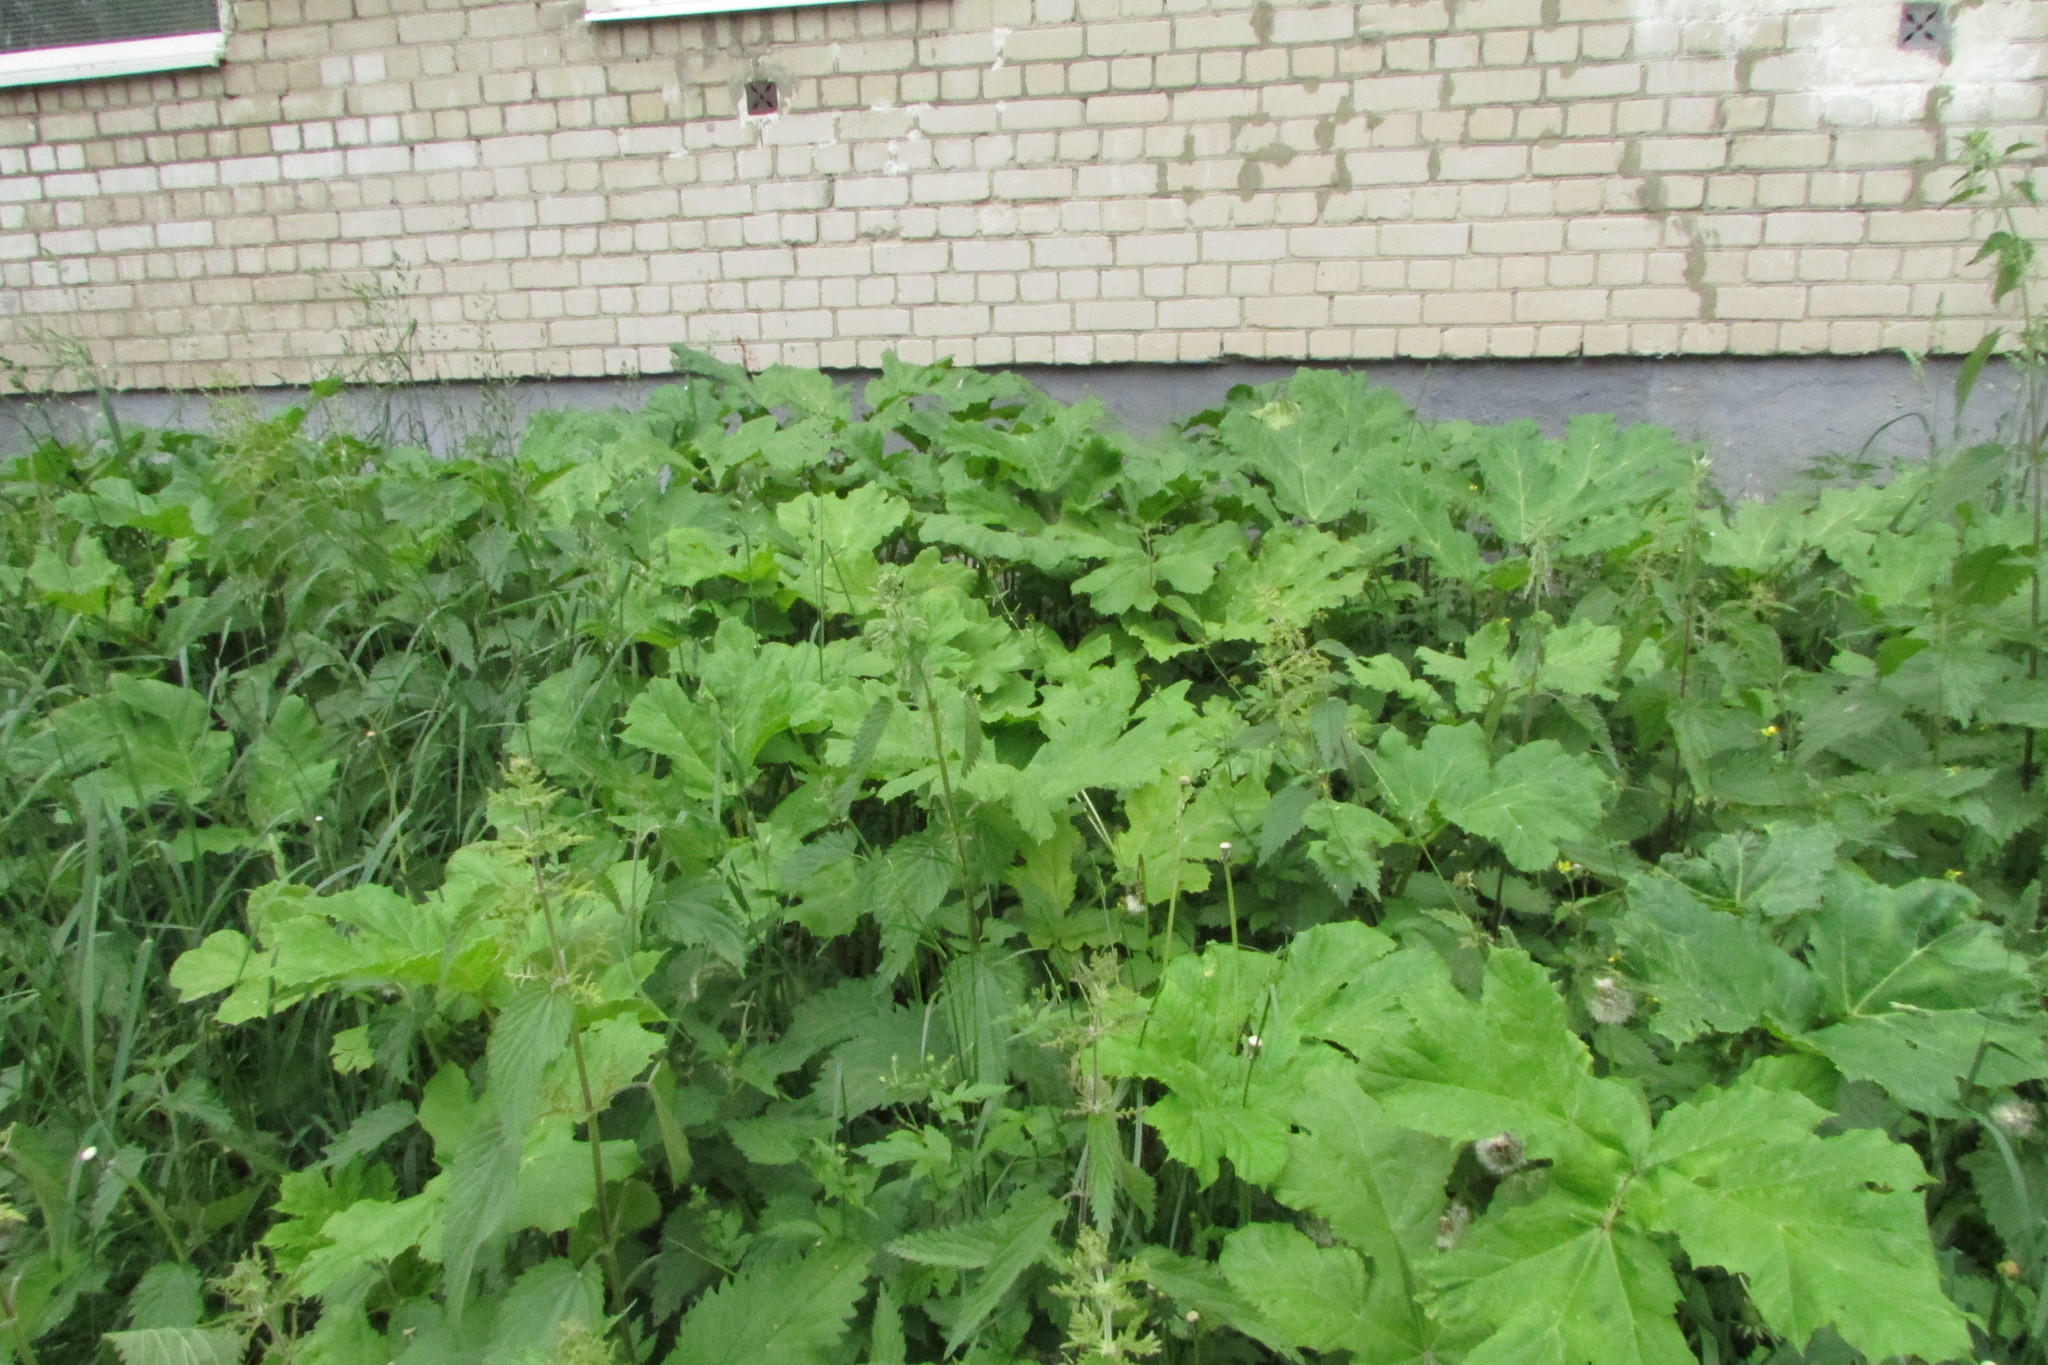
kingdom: Plantae
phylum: Tracheophyta
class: Magnoliopsida
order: Apiales
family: Apiaceae
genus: Heracleum
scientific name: Heracleum sosnowskyi
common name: Sosnowsky's hogweed
